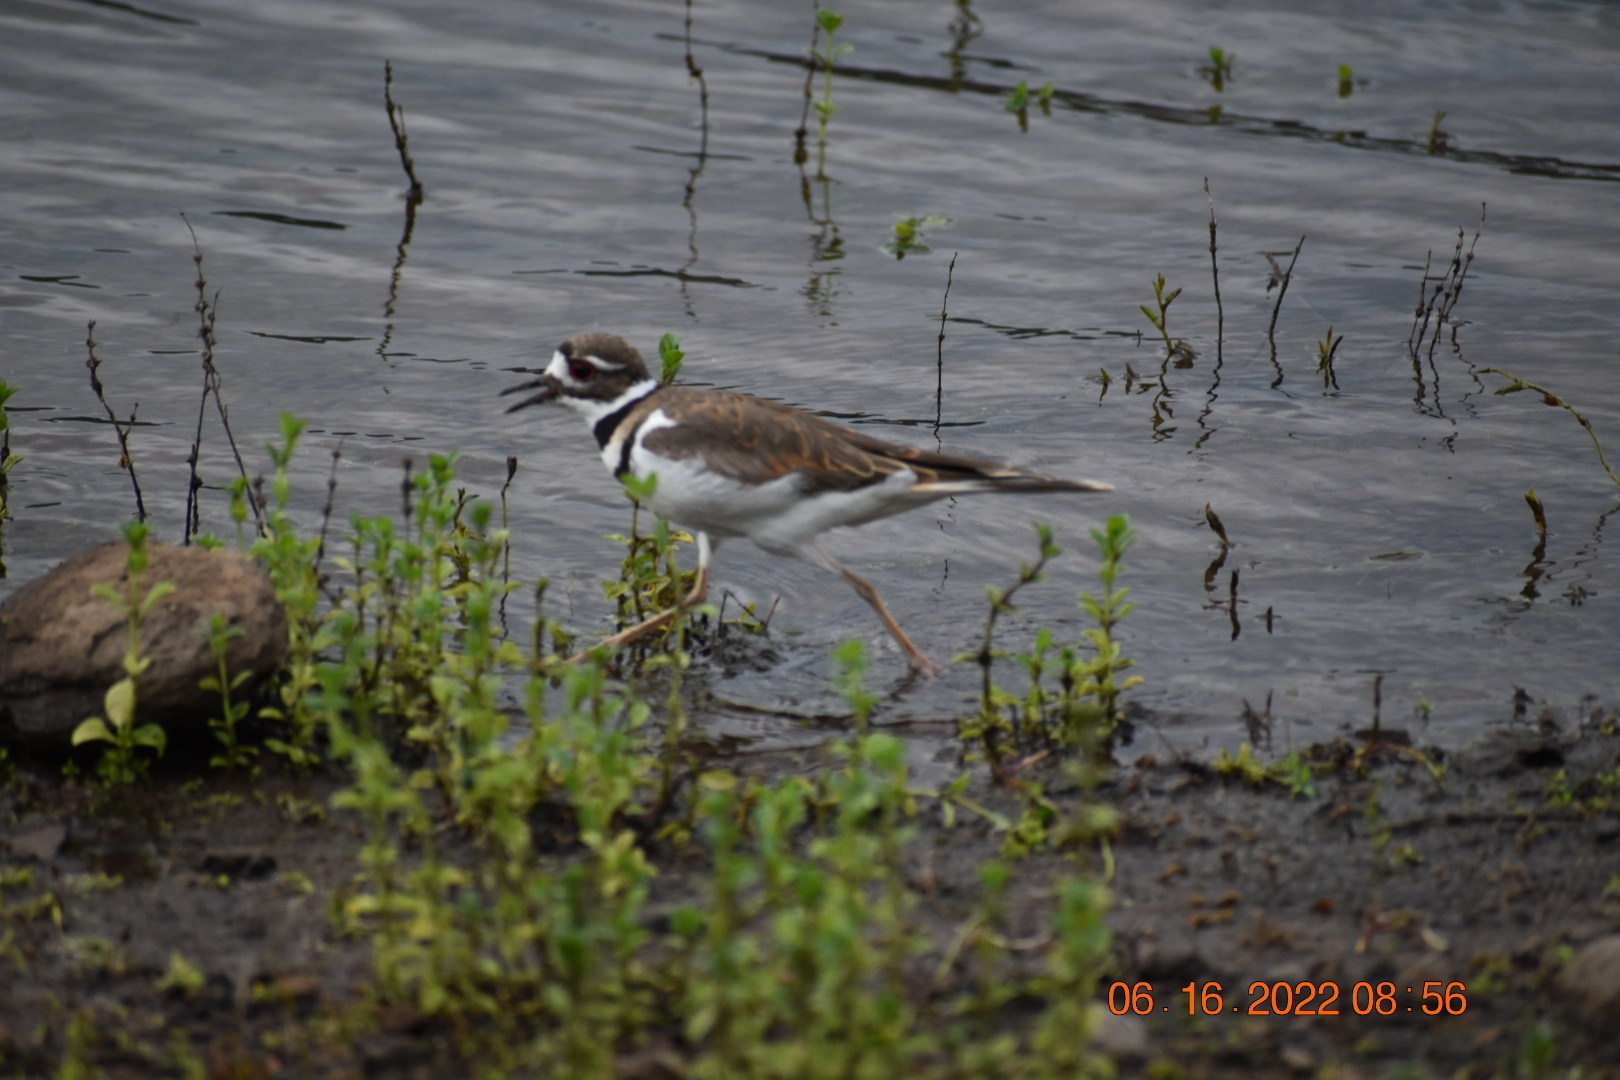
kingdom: Animalia
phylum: Chordata
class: Aves
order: Charadriiformes
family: Charadriidae
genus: Charadrius
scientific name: Charadrius vociferus
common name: Killdeer
